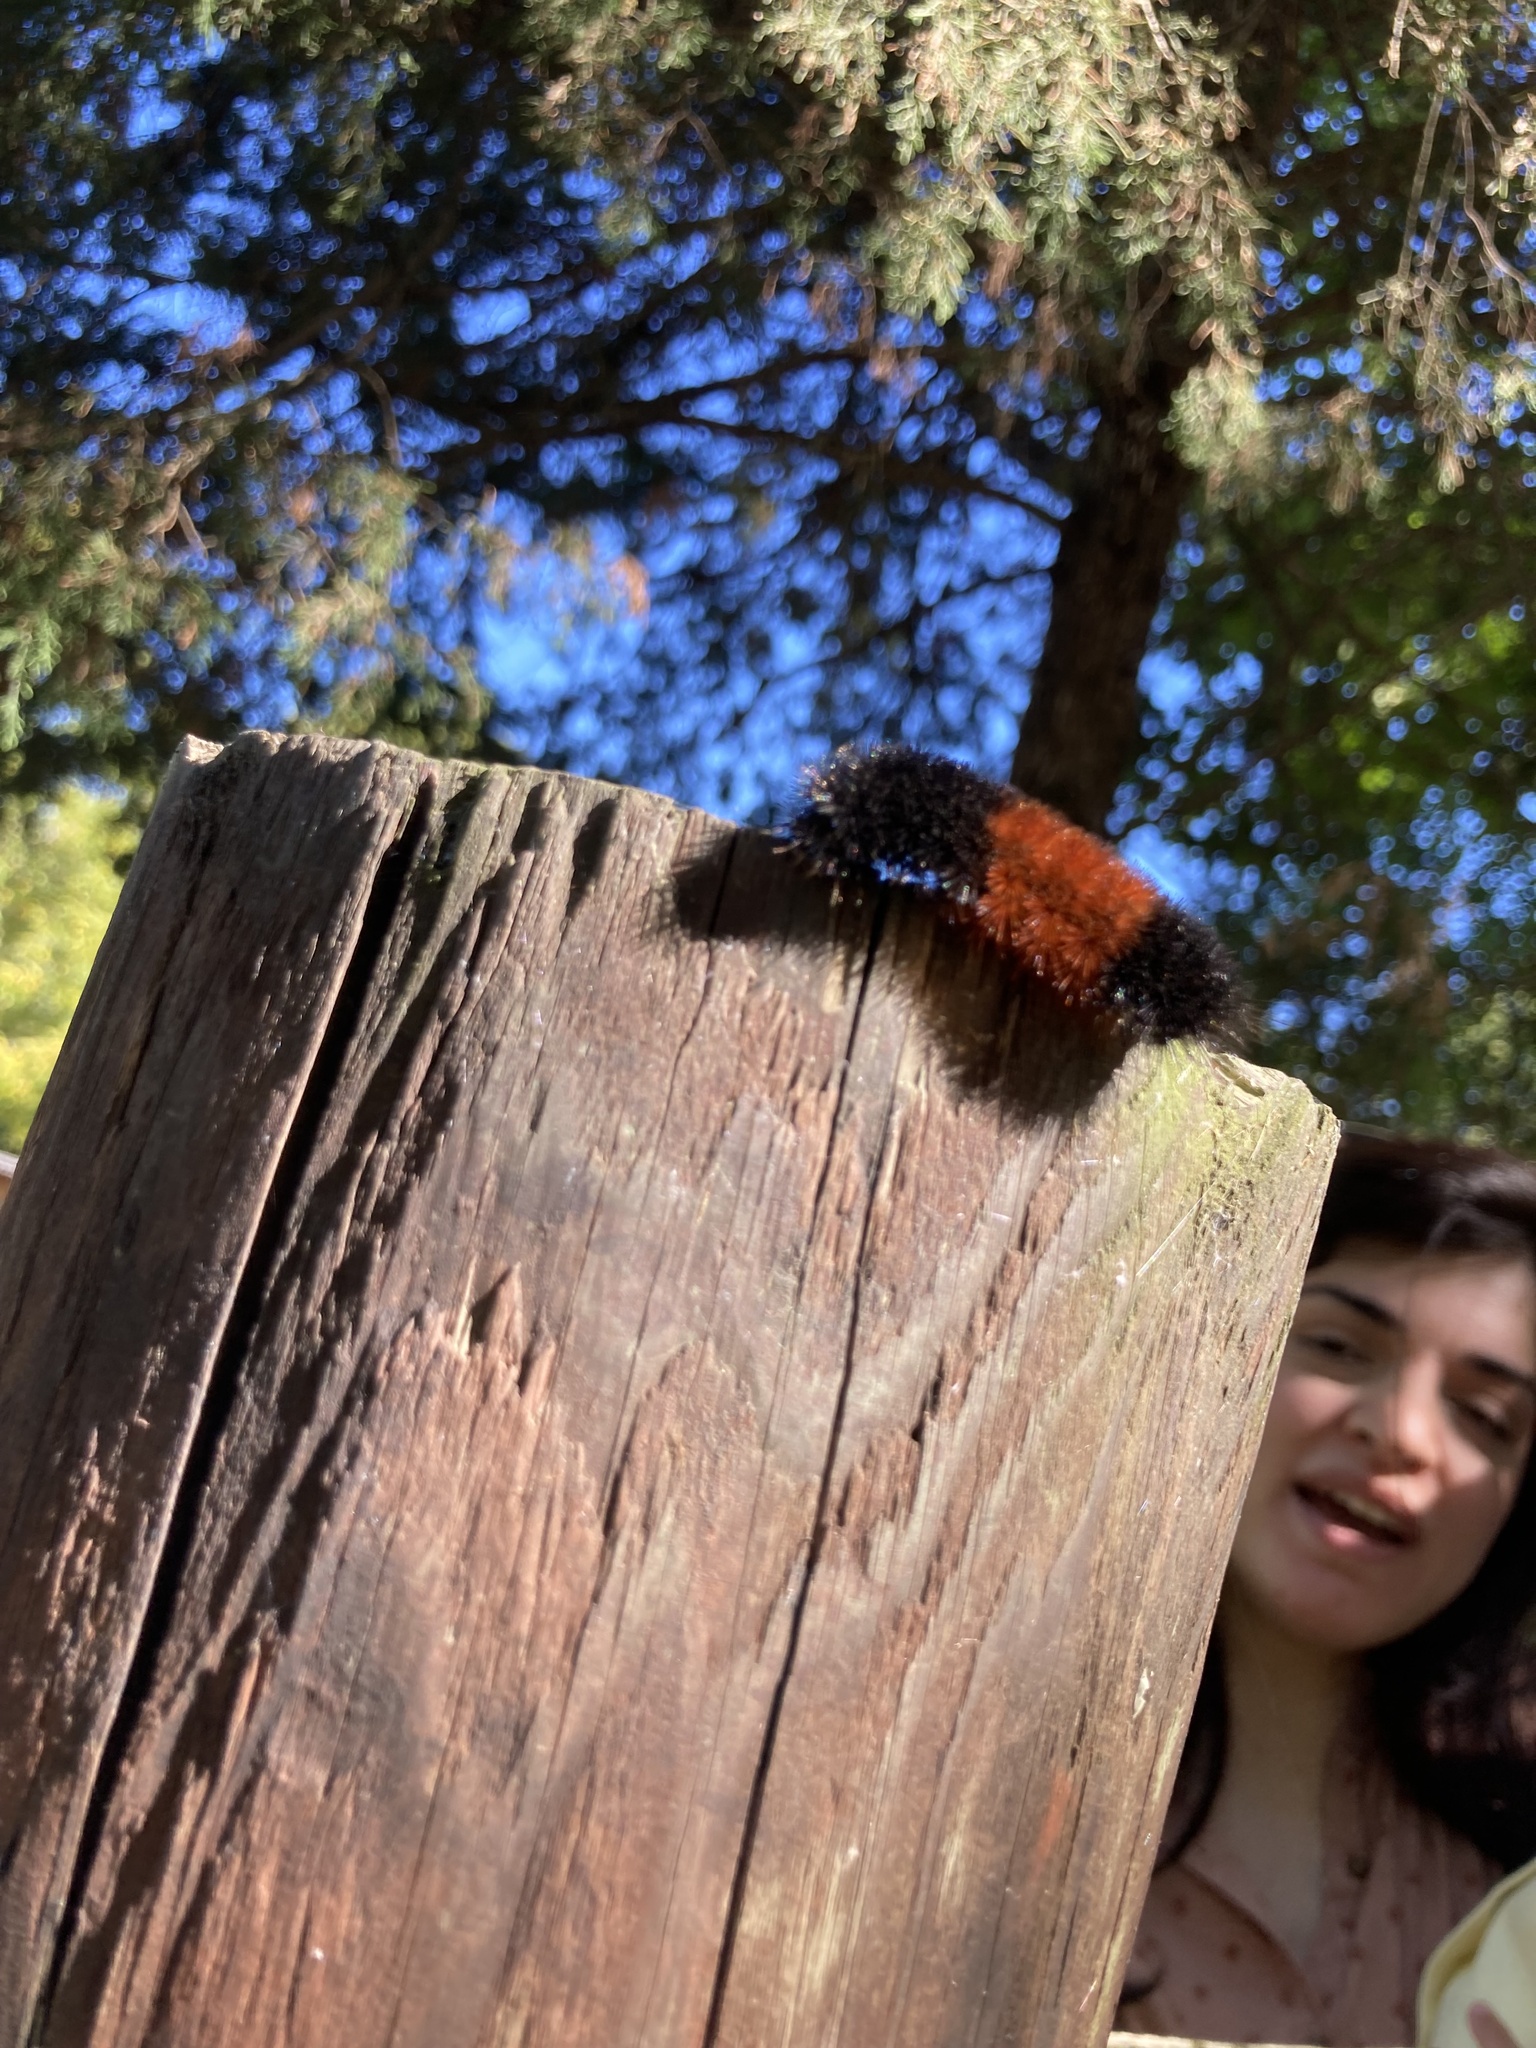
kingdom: Animalia
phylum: Arthropoda
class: Insecta
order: Lepidoptera
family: Erebidae
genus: Pyrrharctia
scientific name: Pyrrharctia isabella
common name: Isabella tiger moth
